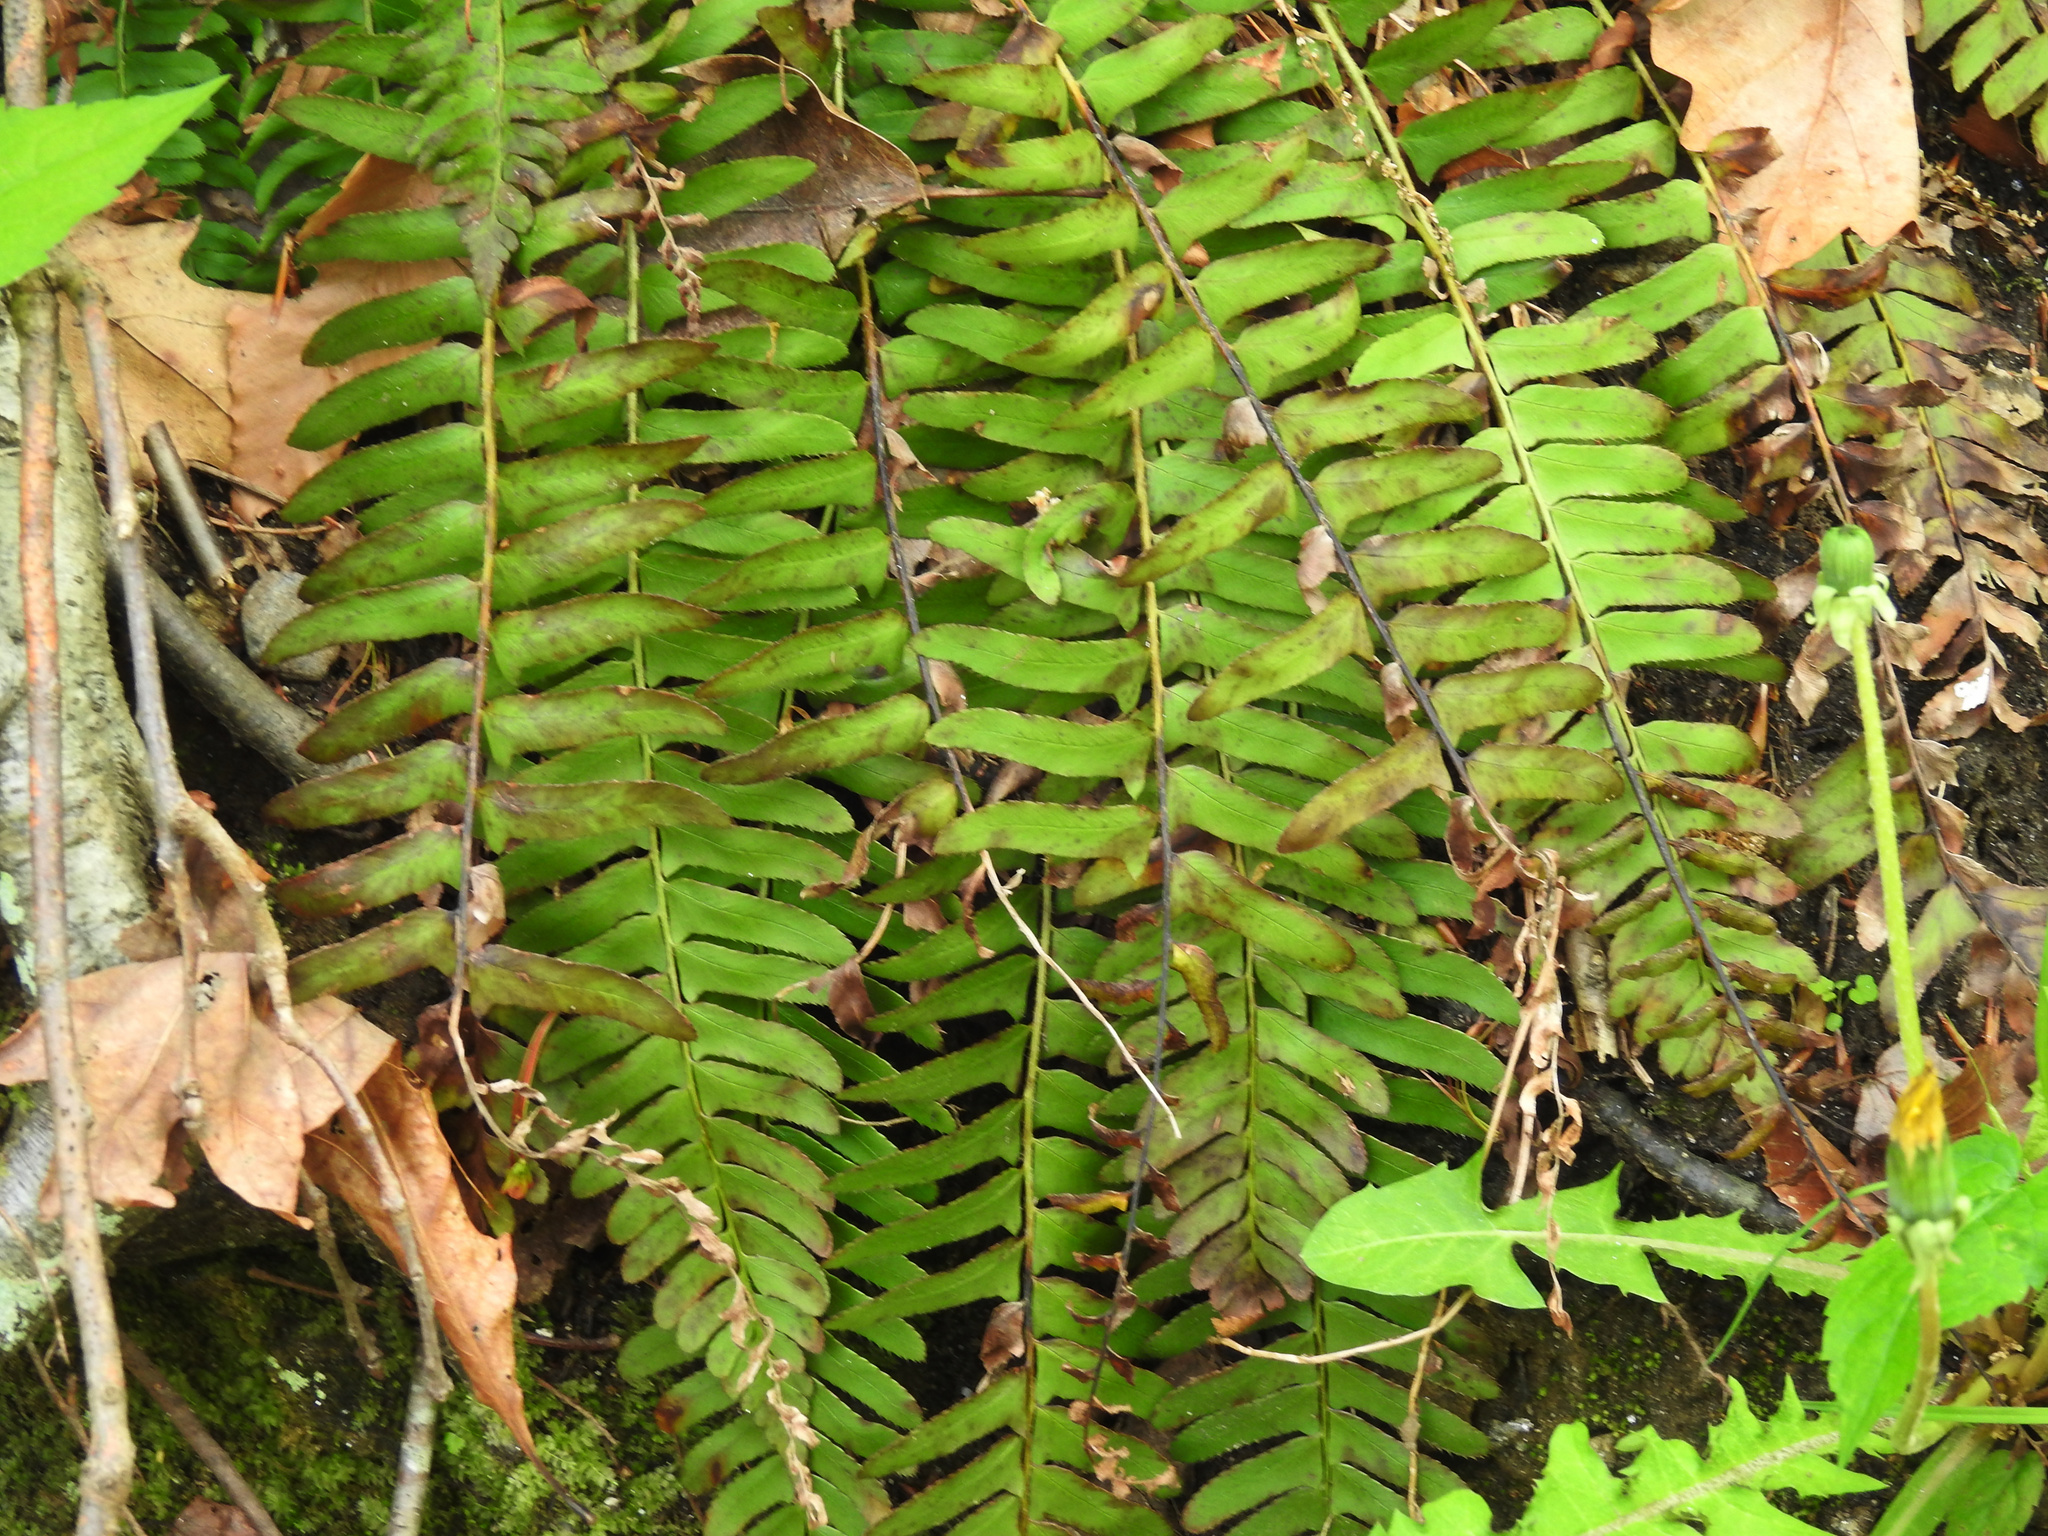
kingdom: Plantae
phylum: Tracheophyta
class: Polypodiopsida
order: Polypodiales
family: Dryopteridaceae
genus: Polystichum
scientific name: Polystichum acrostichoides
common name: Christmas fern
